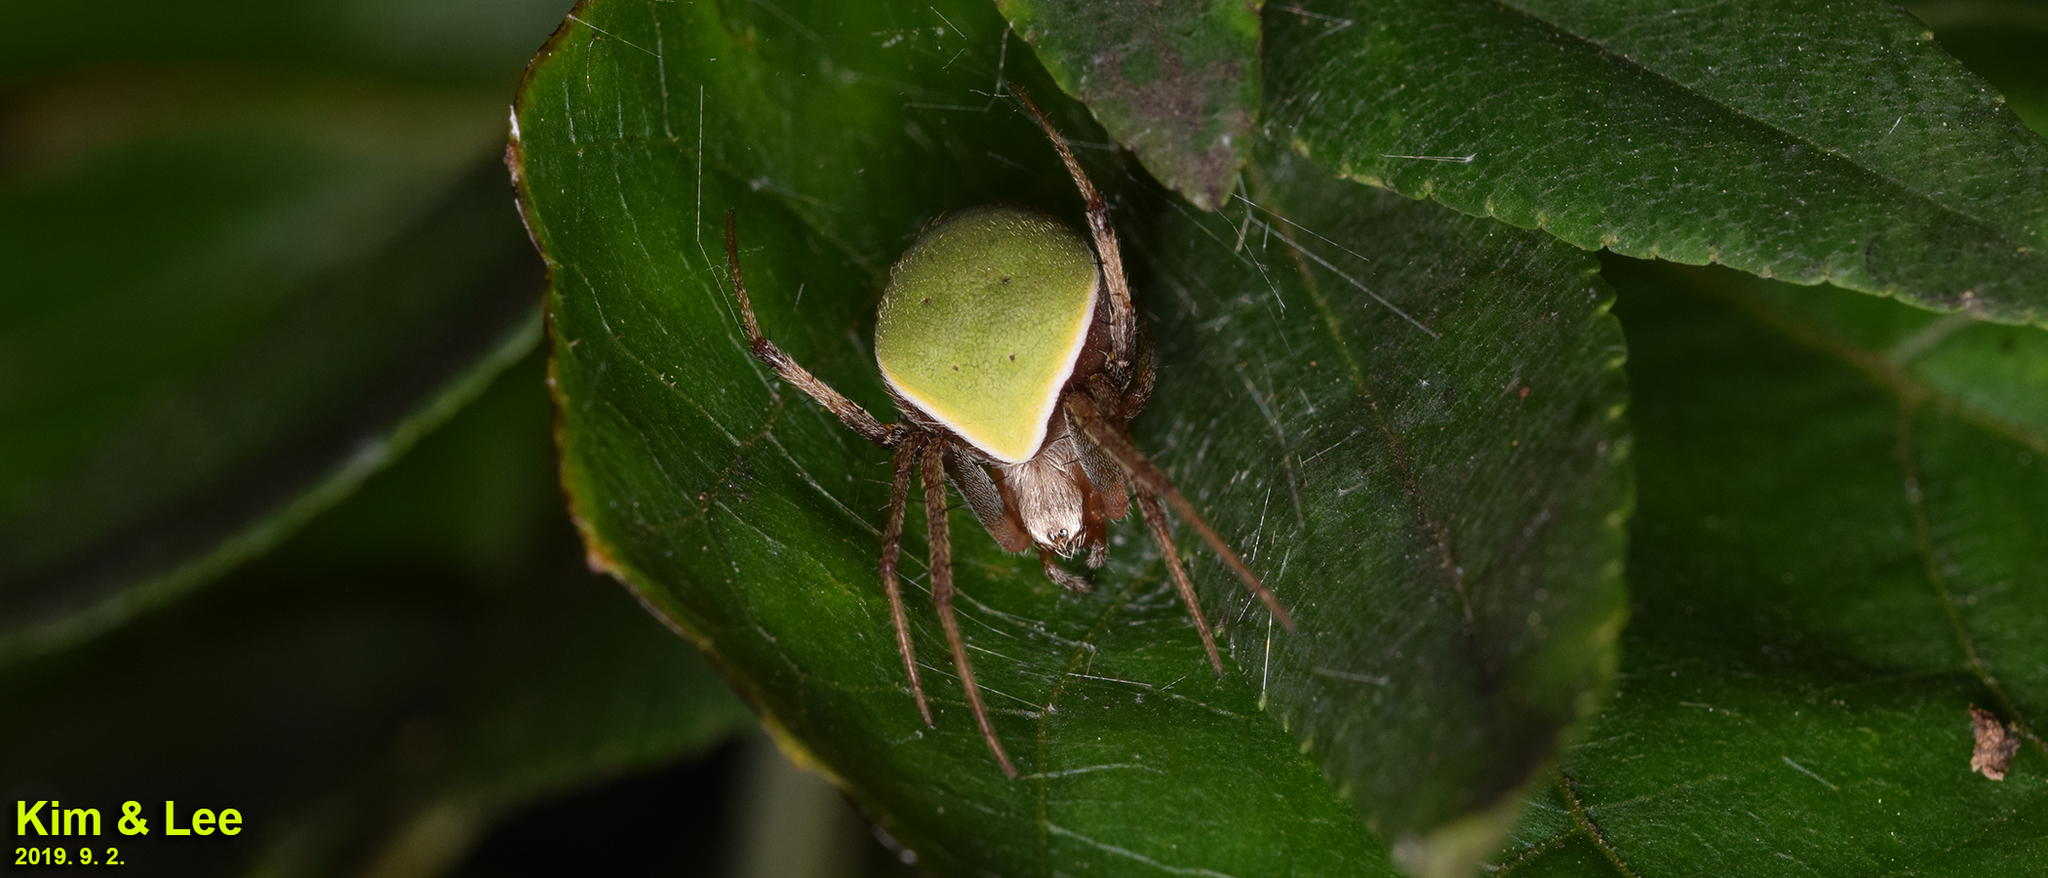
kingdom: Animalia
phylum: Arthropoda
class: Arachnida
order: Araneae
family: Araneidae
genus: Neoscona
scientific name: Neoscona scylloides
